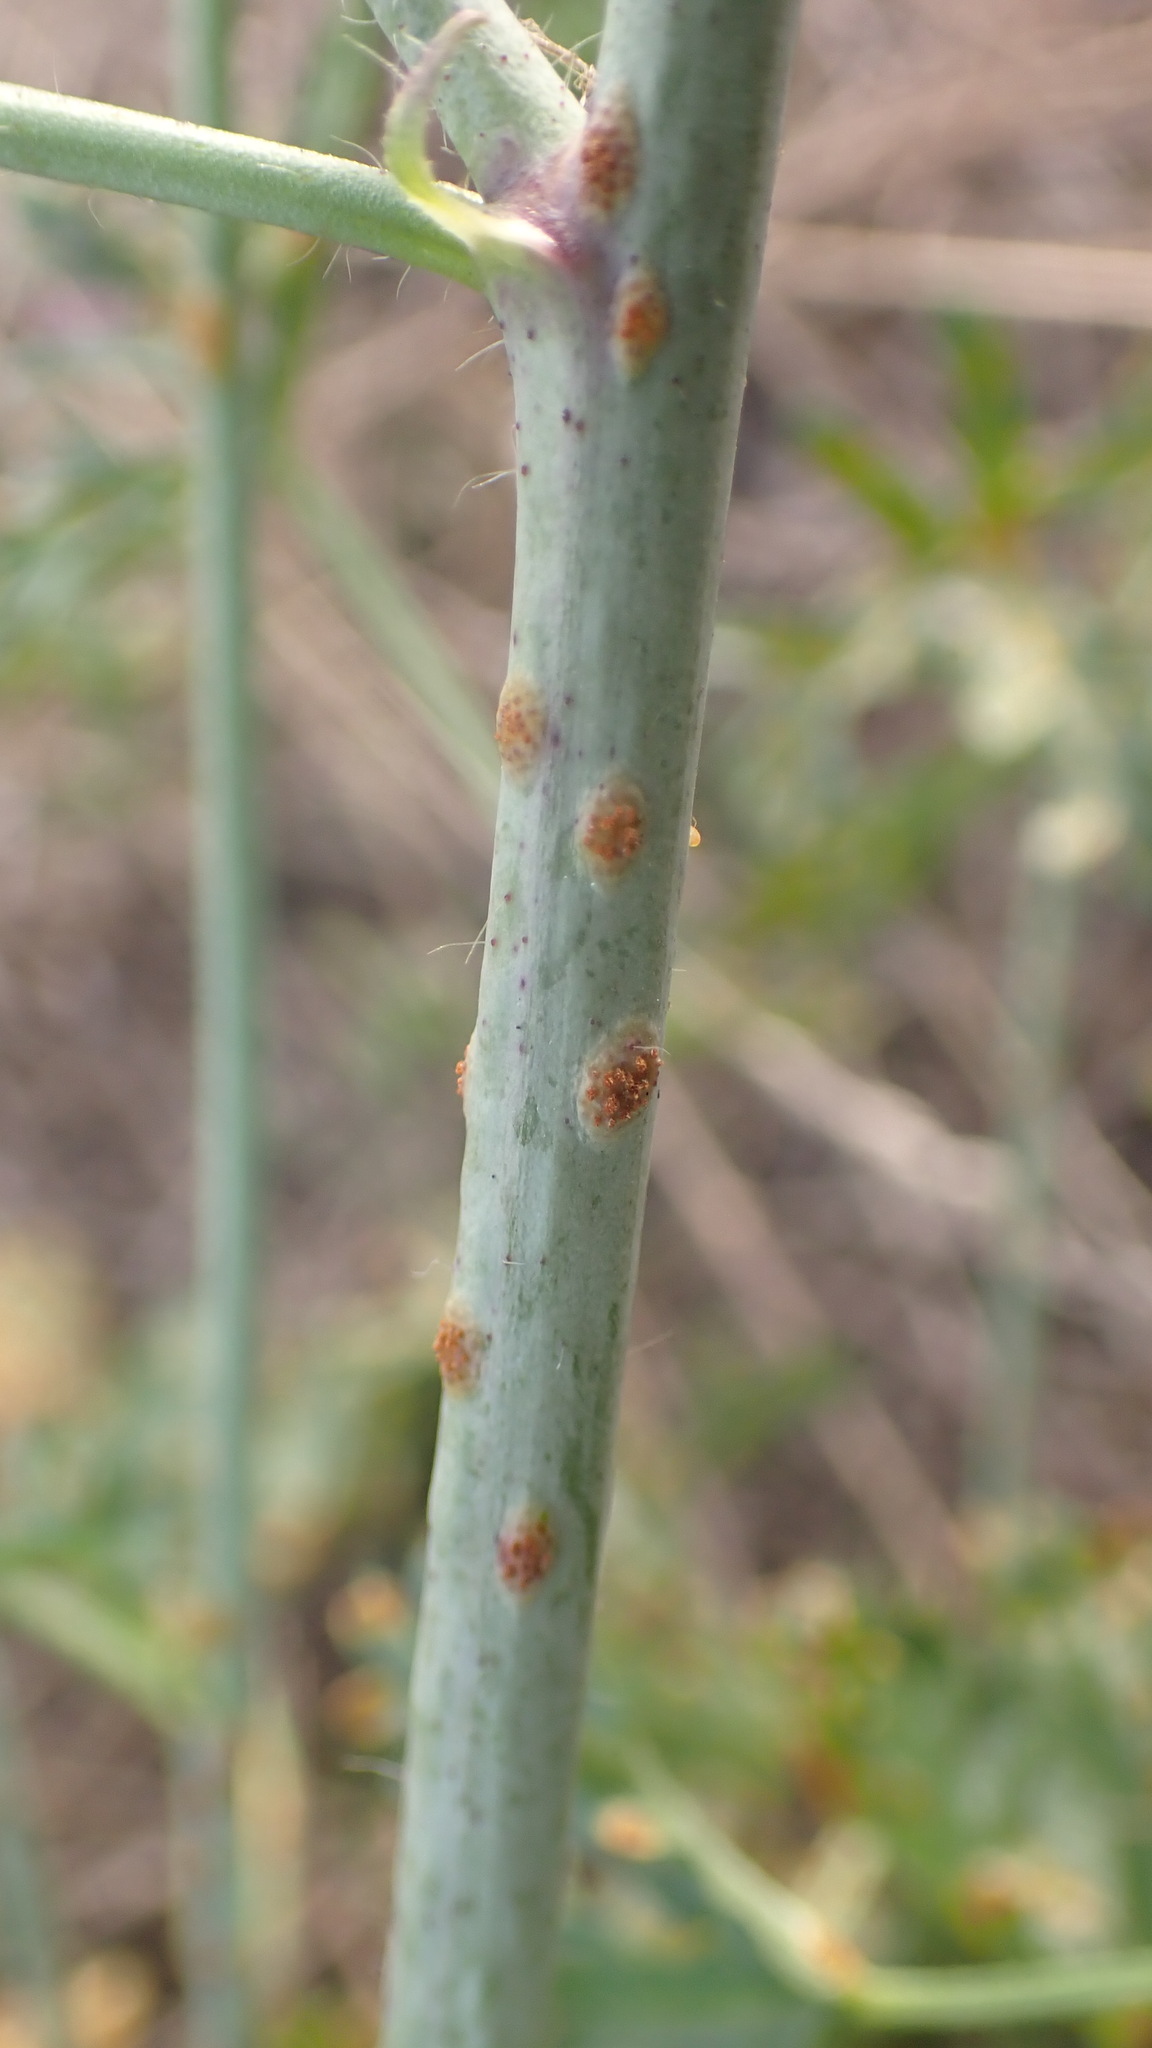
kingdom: Fungi
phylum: Basidiomycota
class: Pucciniomycetes
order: Pucciniales
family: Pucciniaceae
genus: Puccinia
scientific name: Puccinia malvacearum
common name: Hollyhock rust
